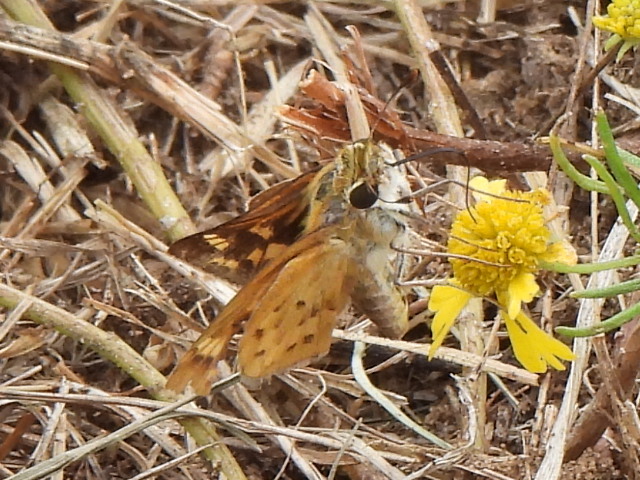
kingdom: Animalia
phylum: Arthropoda
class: Insecta
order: Lepidoptera
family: Hesperiidae
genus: Hylephila
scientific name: Hylephila phyleus
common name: Fiery skipper
